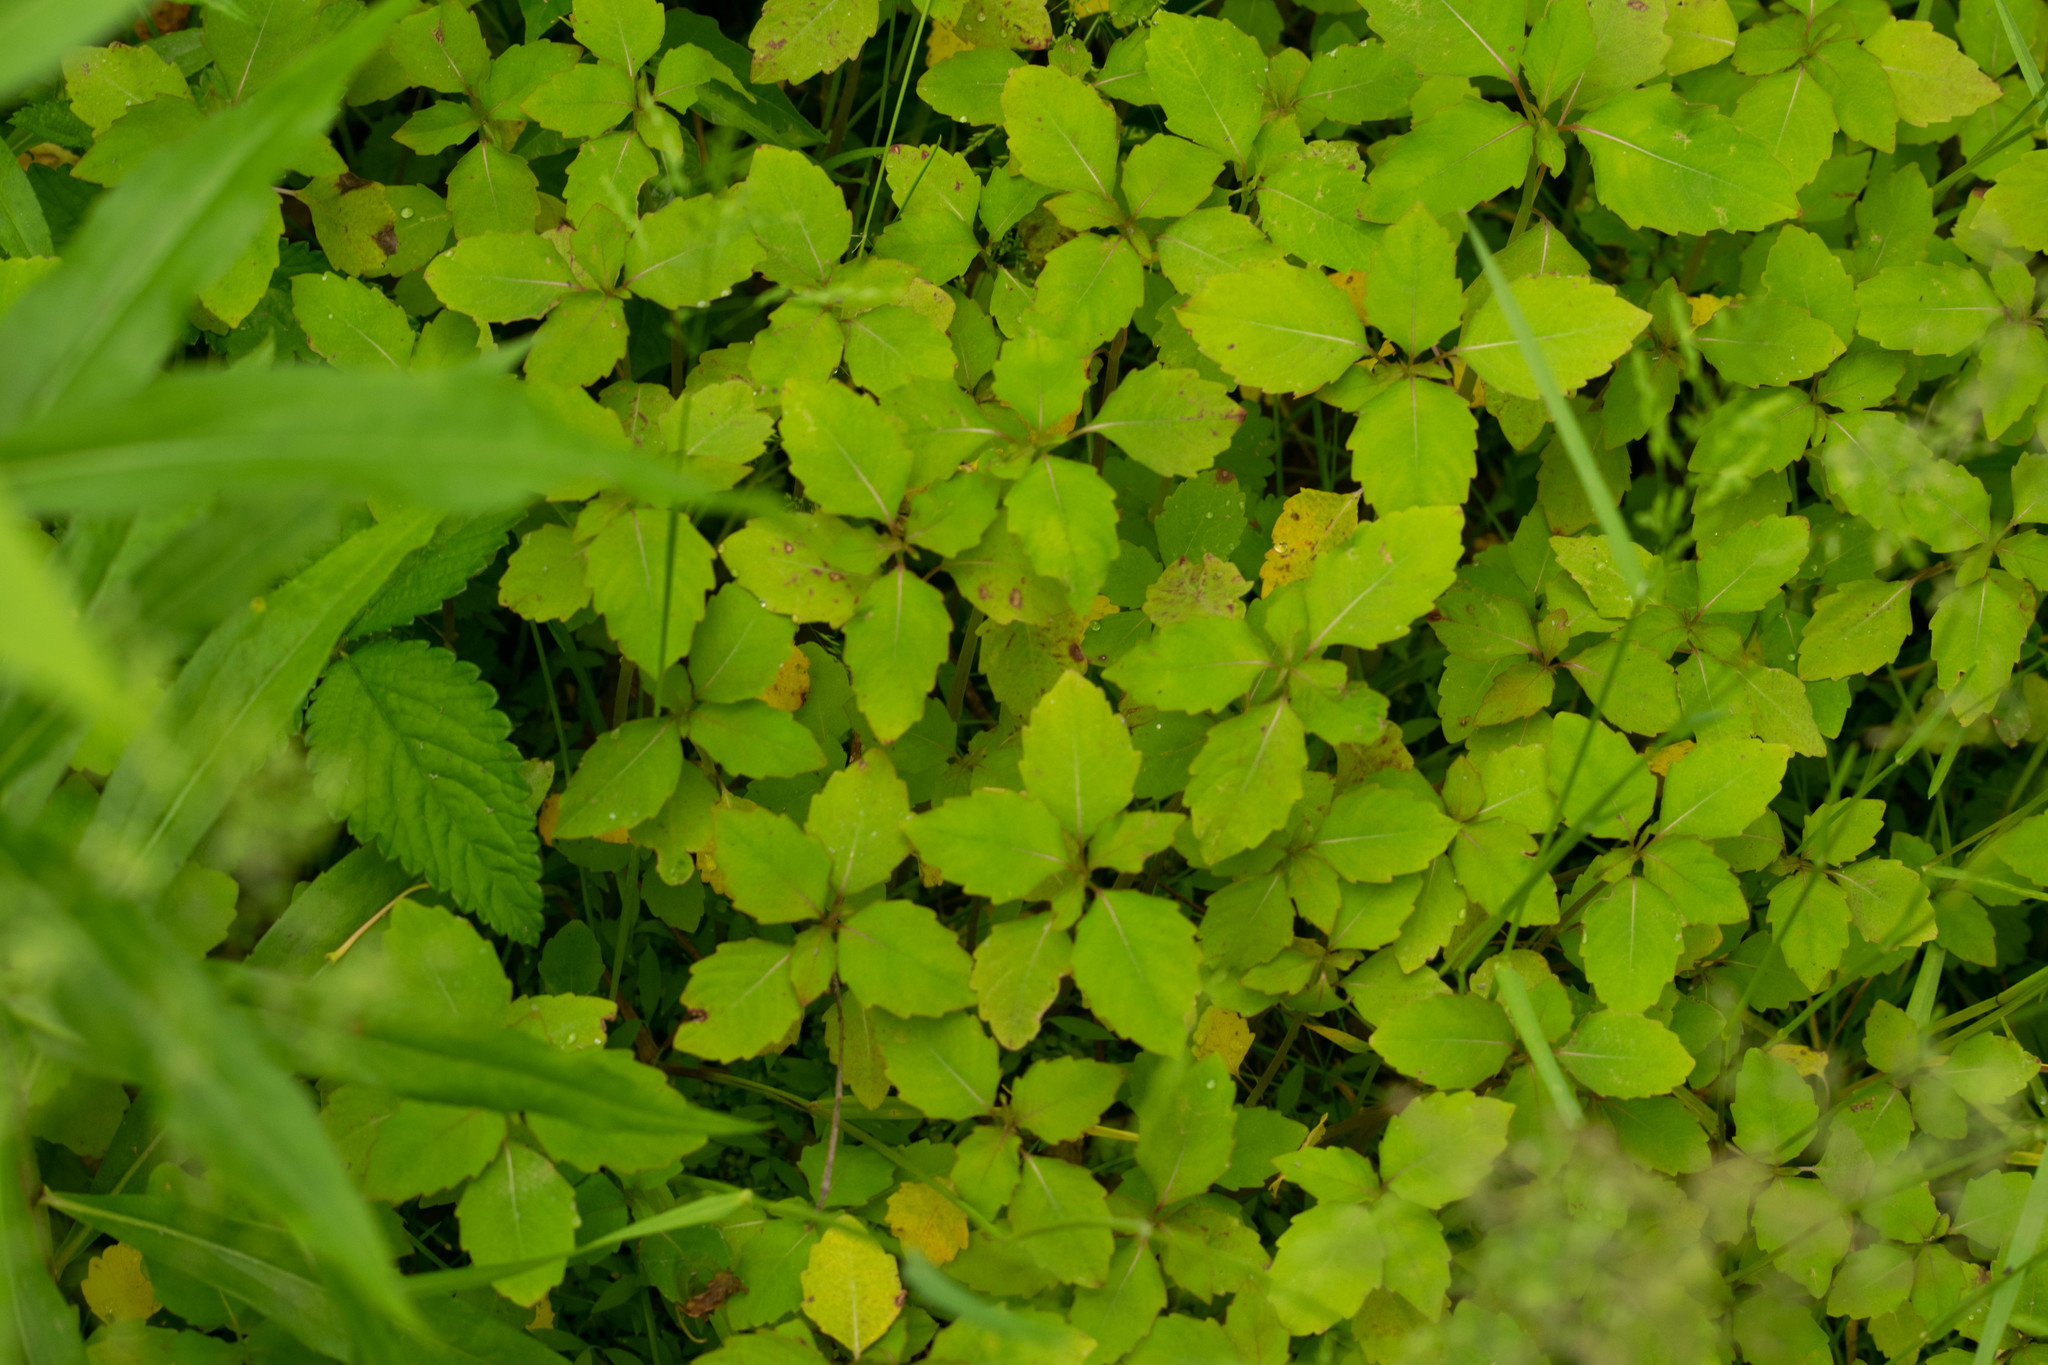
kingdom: Plantae
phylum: Tracheophyta
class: Magnoliopsida
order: Ericales
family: Balsaminaceae
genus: Impatiens
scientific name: Impatiens
